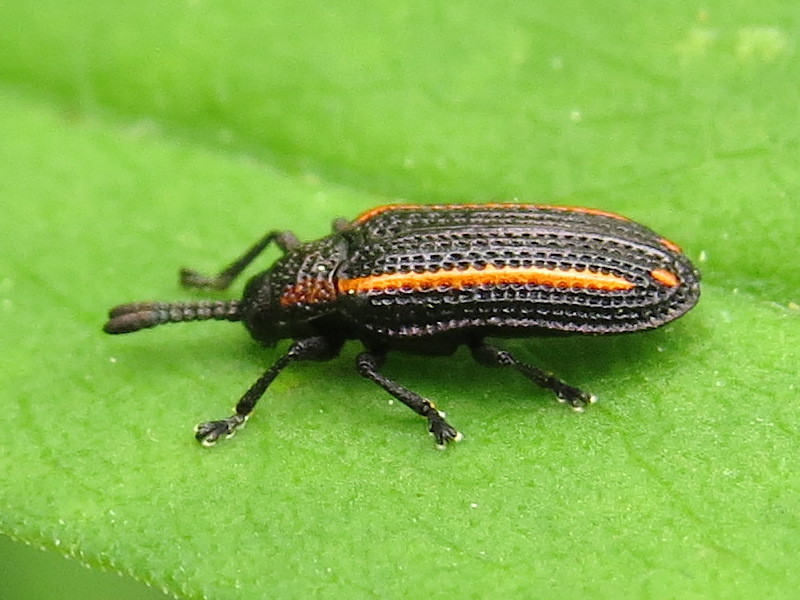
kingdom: Animalia
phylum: Arthropoda
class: Insecta
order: Coleoptera
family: Chrysomelidae
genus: Microrhopala
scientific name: Microrhopala xerene
